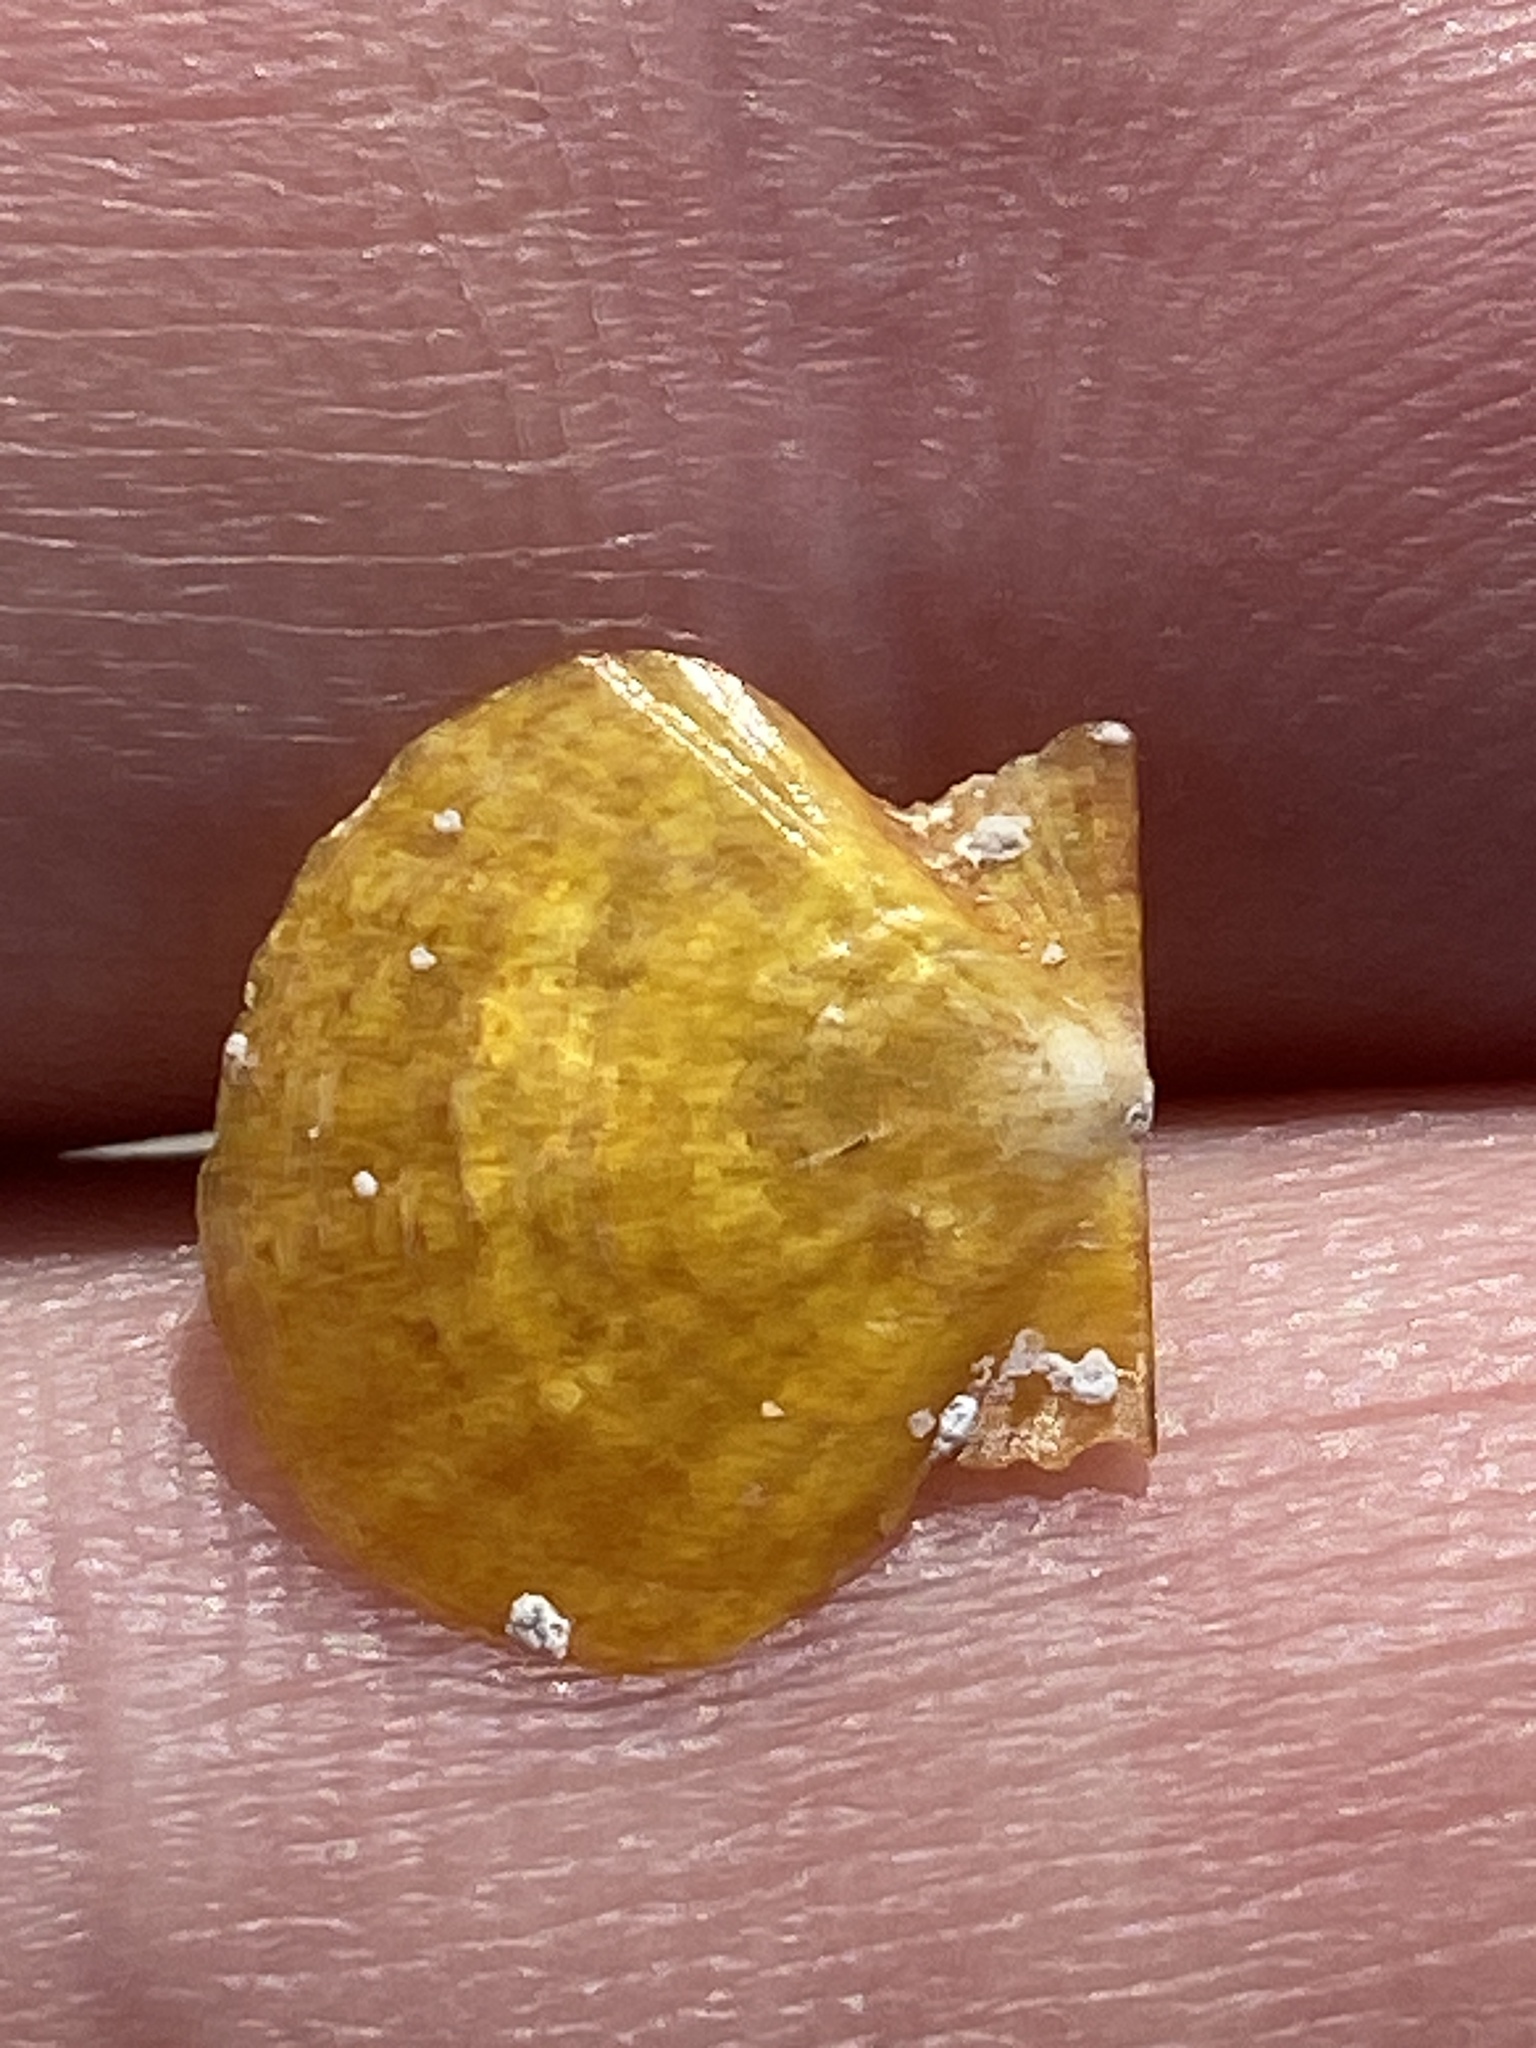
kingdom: Animalia
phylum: Mollusca
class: Bivalvia
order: Pectinida
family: Pectinidae
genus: Flexopecten
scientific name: Flexopecten hyalinus
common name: Hyaline scallop
